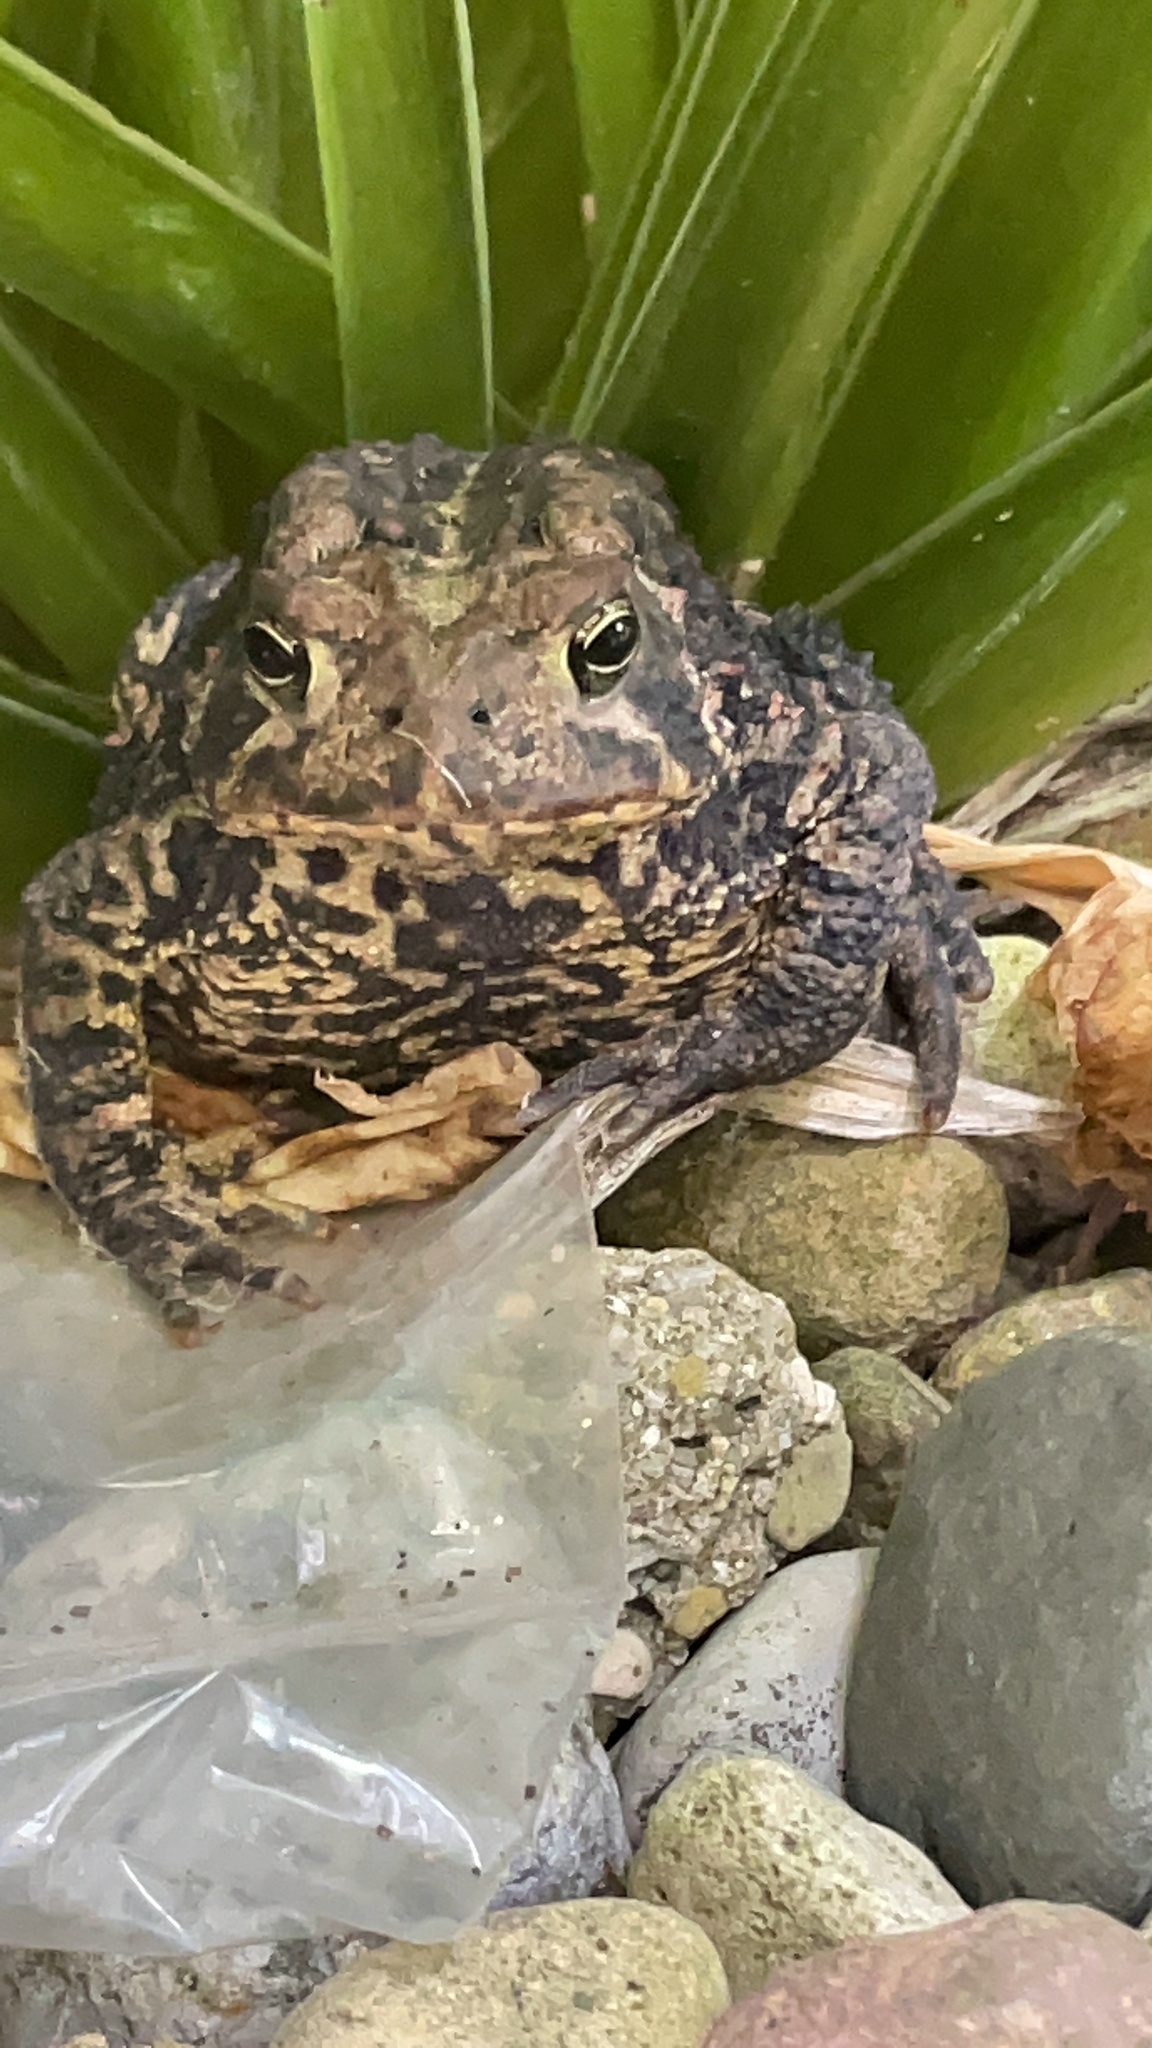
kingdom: Animalia
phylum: Chordata
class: Amphibia
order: Anura
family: Bufonidae
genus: Anaxyrus
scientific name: Anaxyrus americanus
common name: American toad
